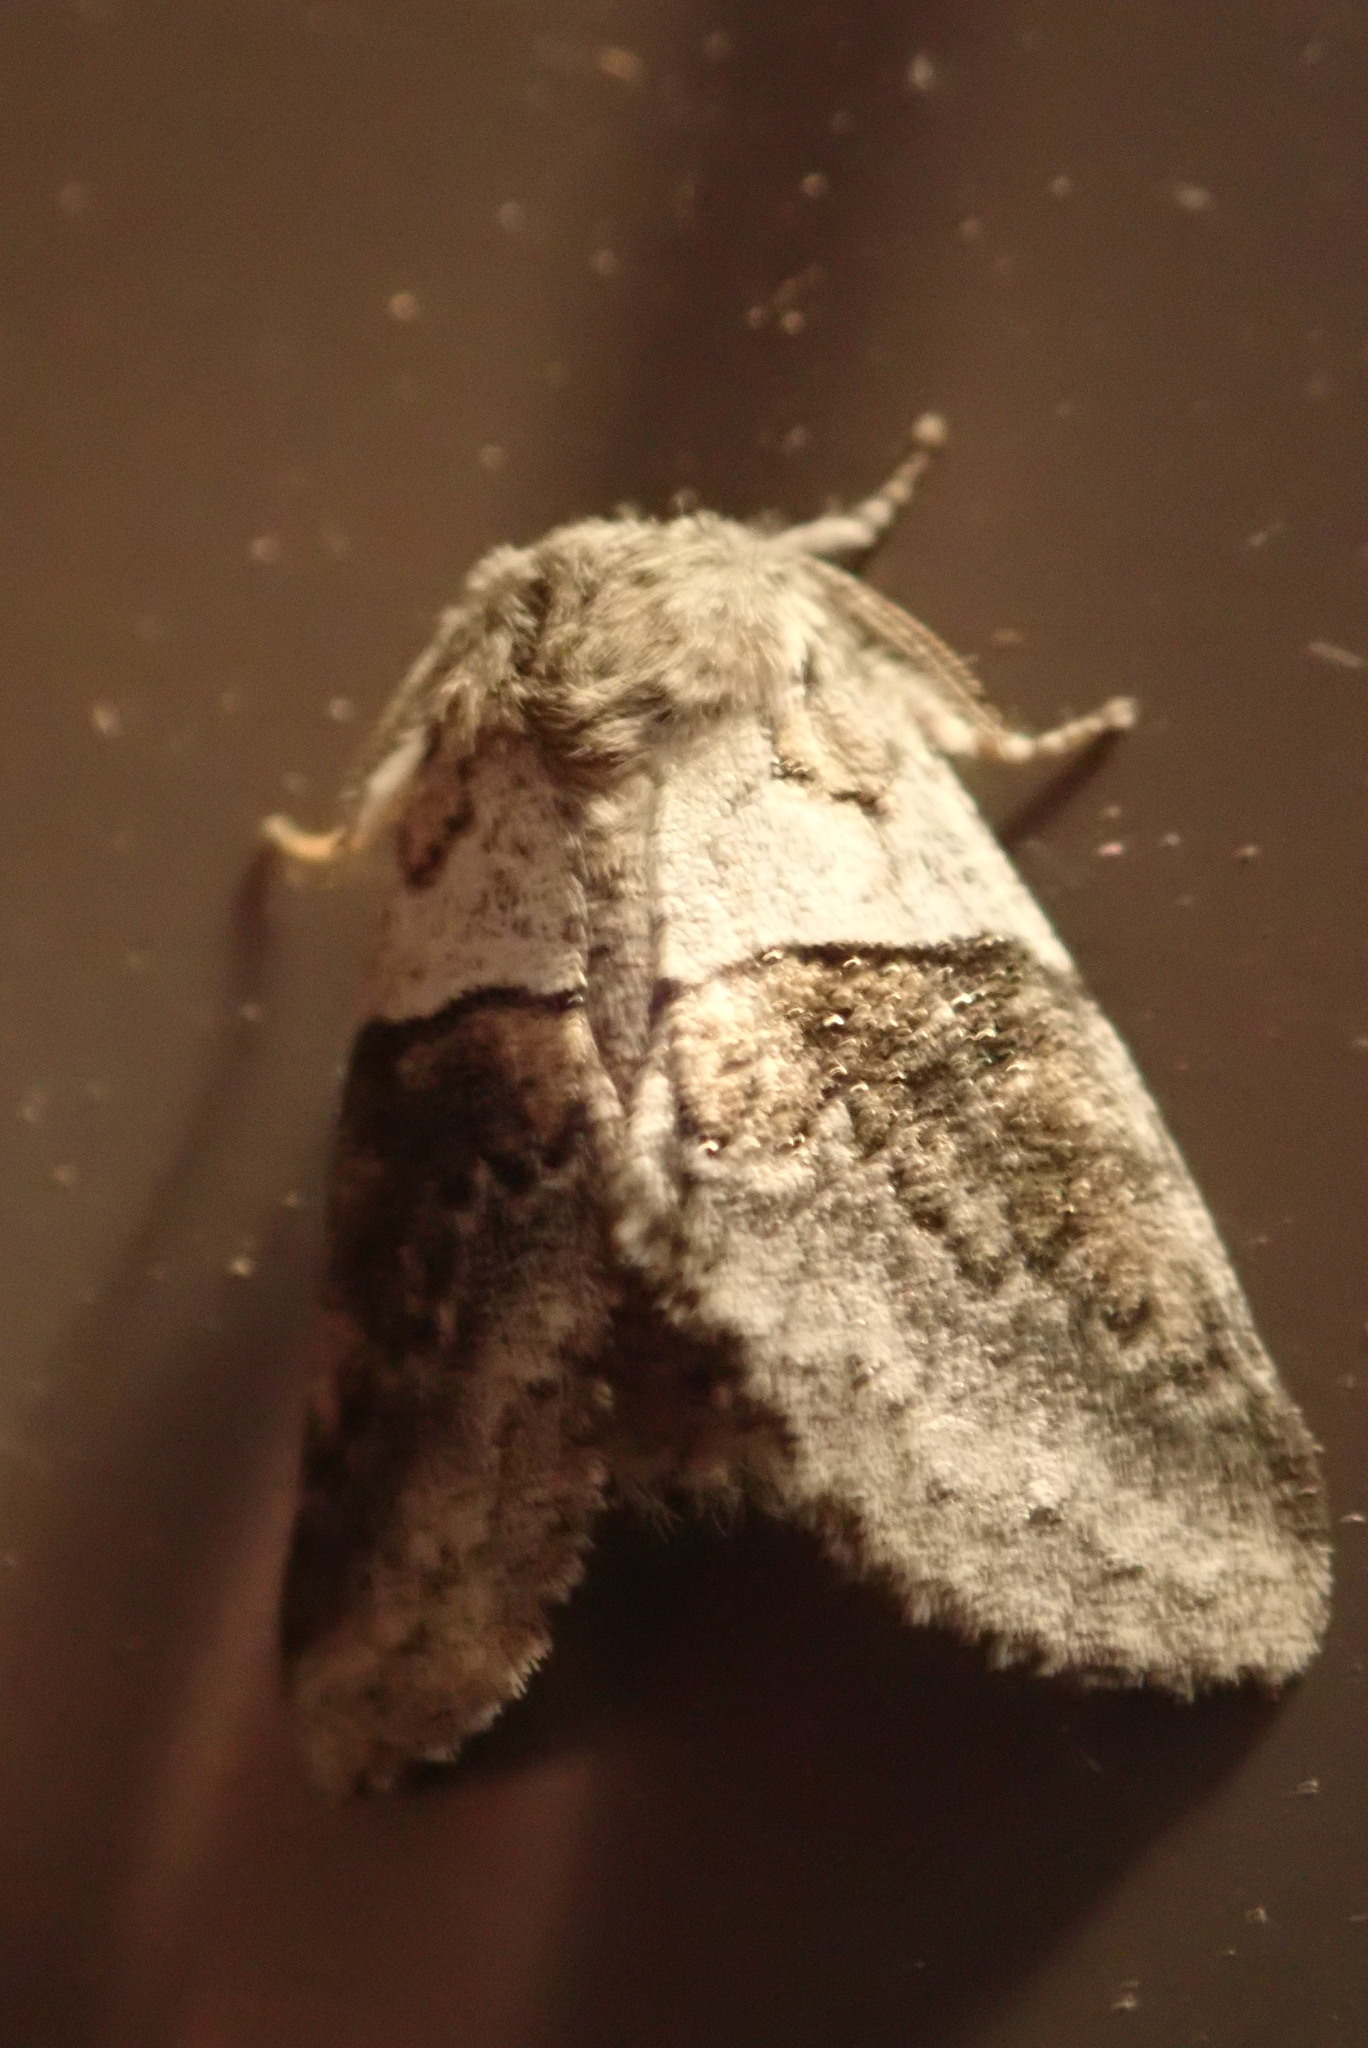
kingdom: Animalia
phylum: Arthropoda
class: Insecta
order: Lepidoptera
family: Notodontidae
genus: Gluphisia
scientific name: Gluphisia septentrionis
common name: Common gluphisia
